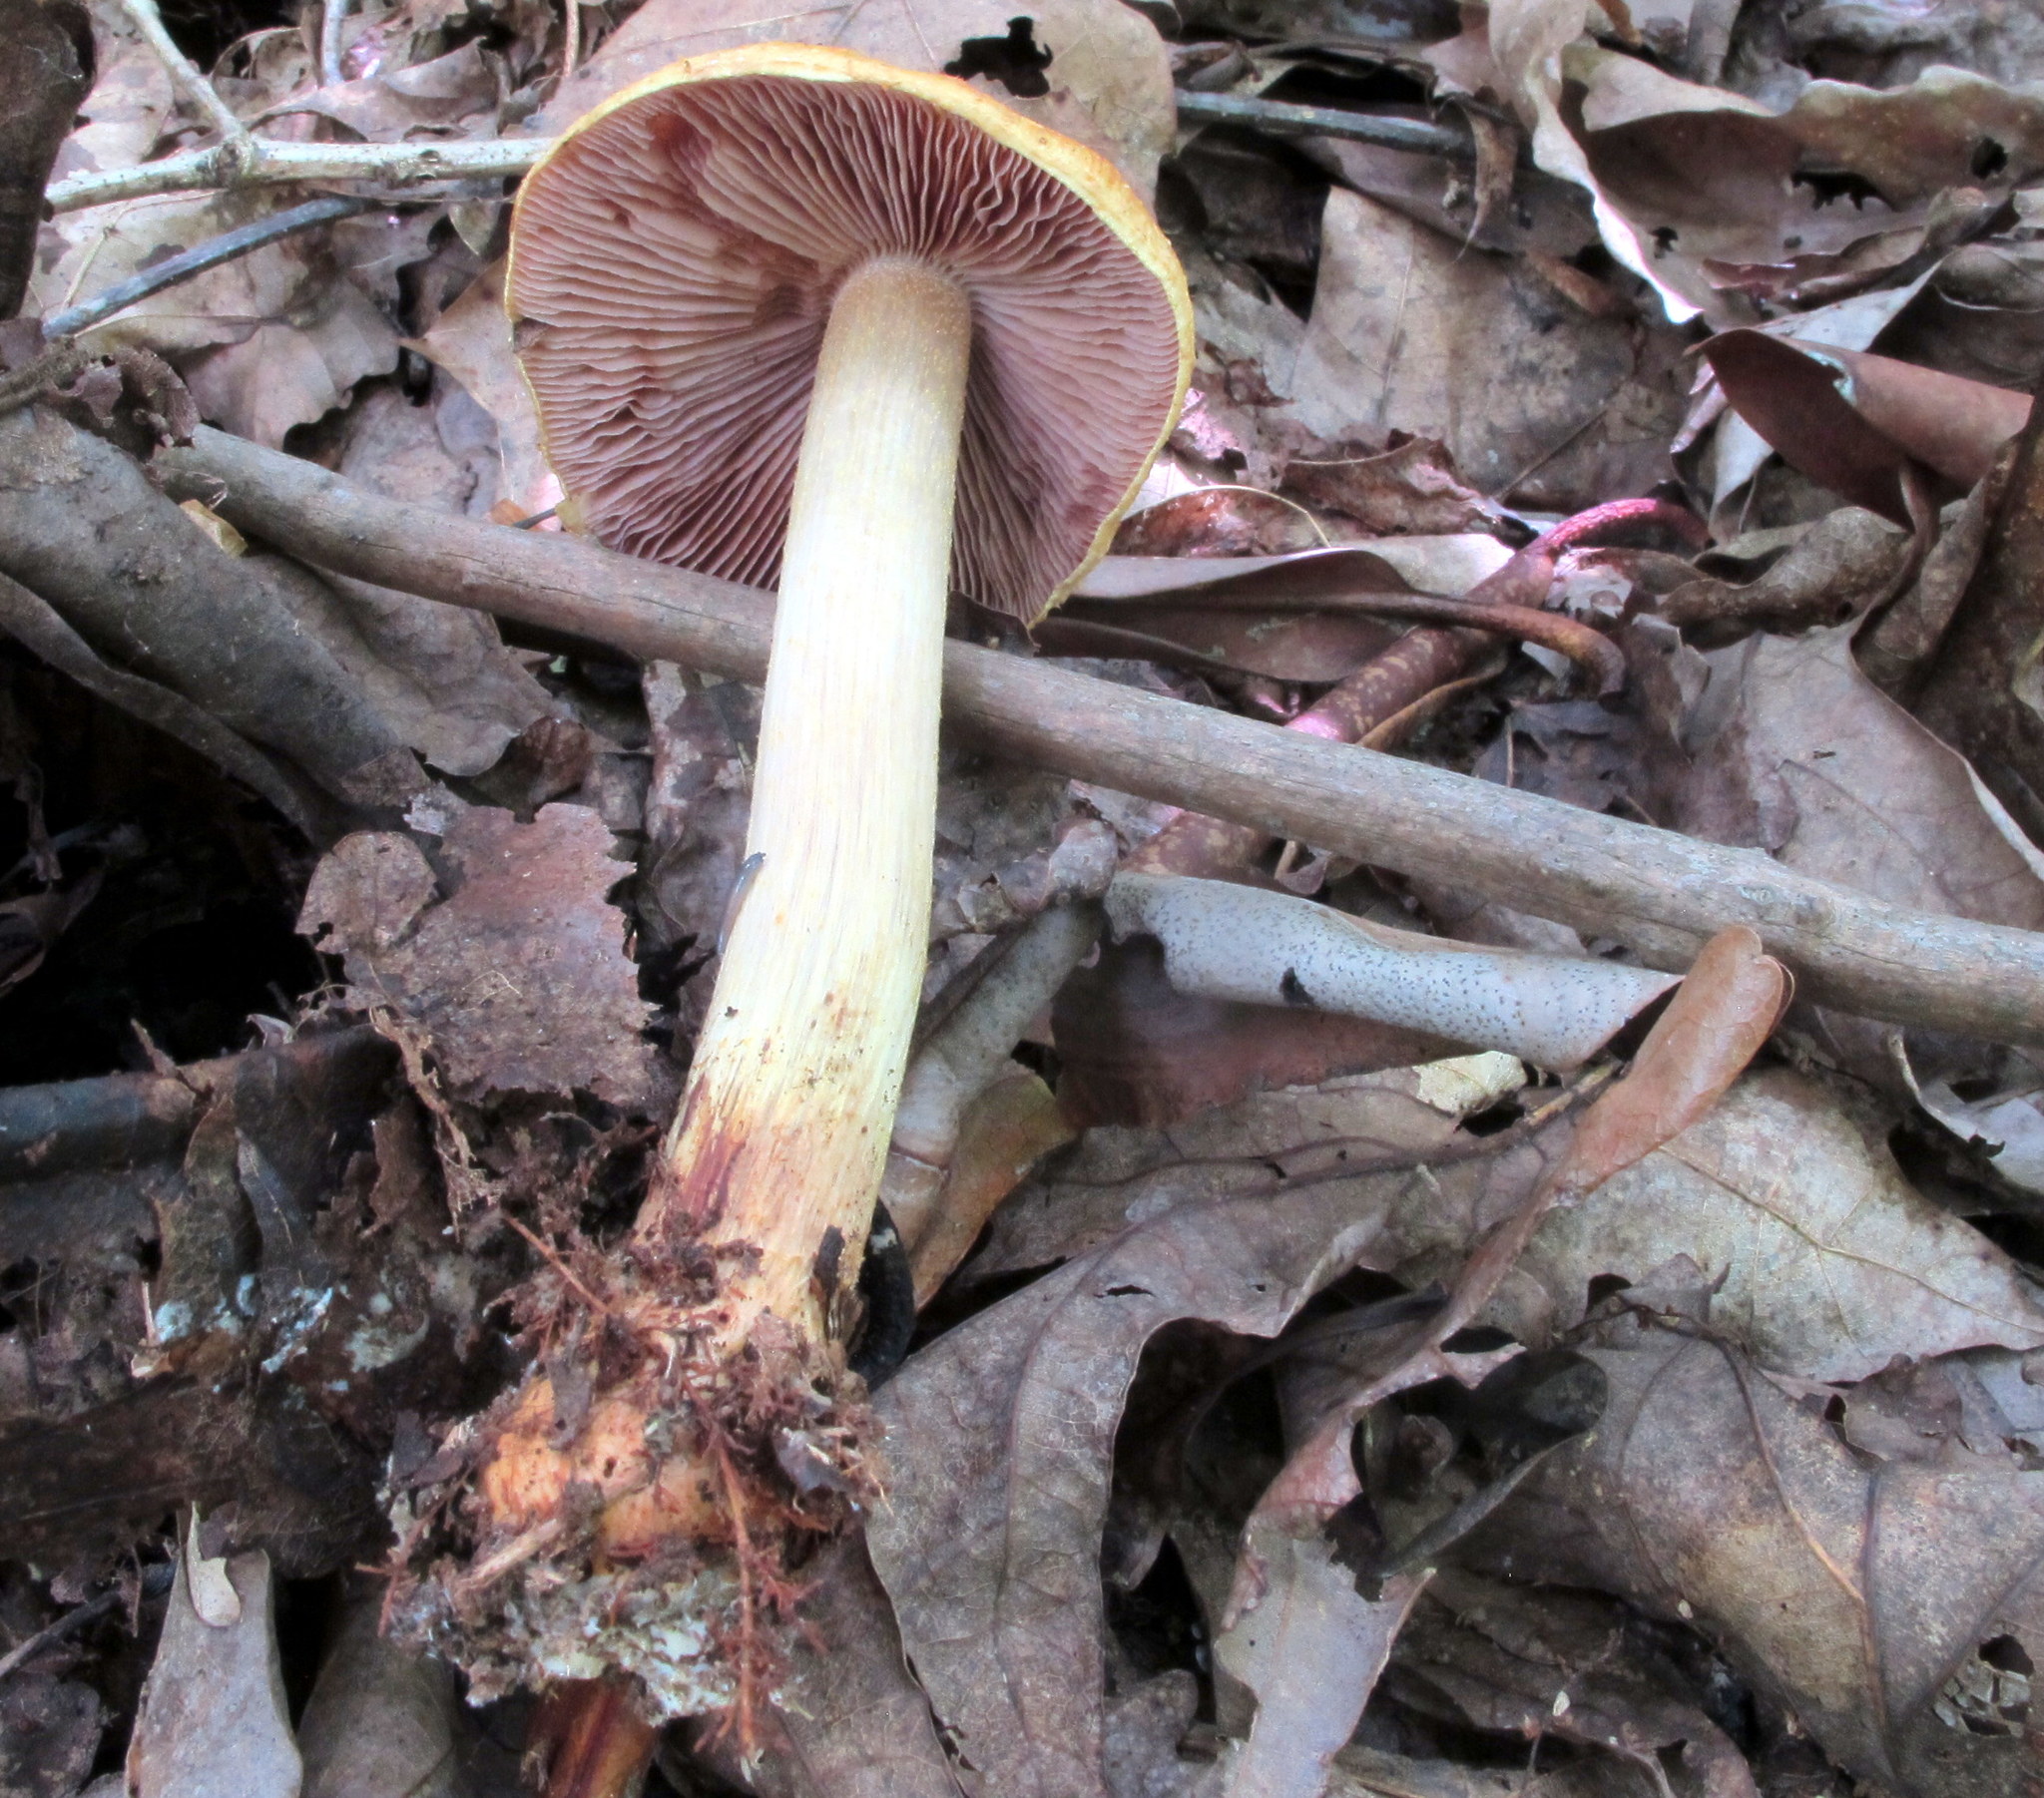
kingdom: Fungi
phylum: Basidiomycota
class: Agaricomycetes
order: Agaricales
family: Cortinariaceae
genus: Cortinarius
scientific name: Cortinarius corrugatus
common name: Wrinkled cortinarius
